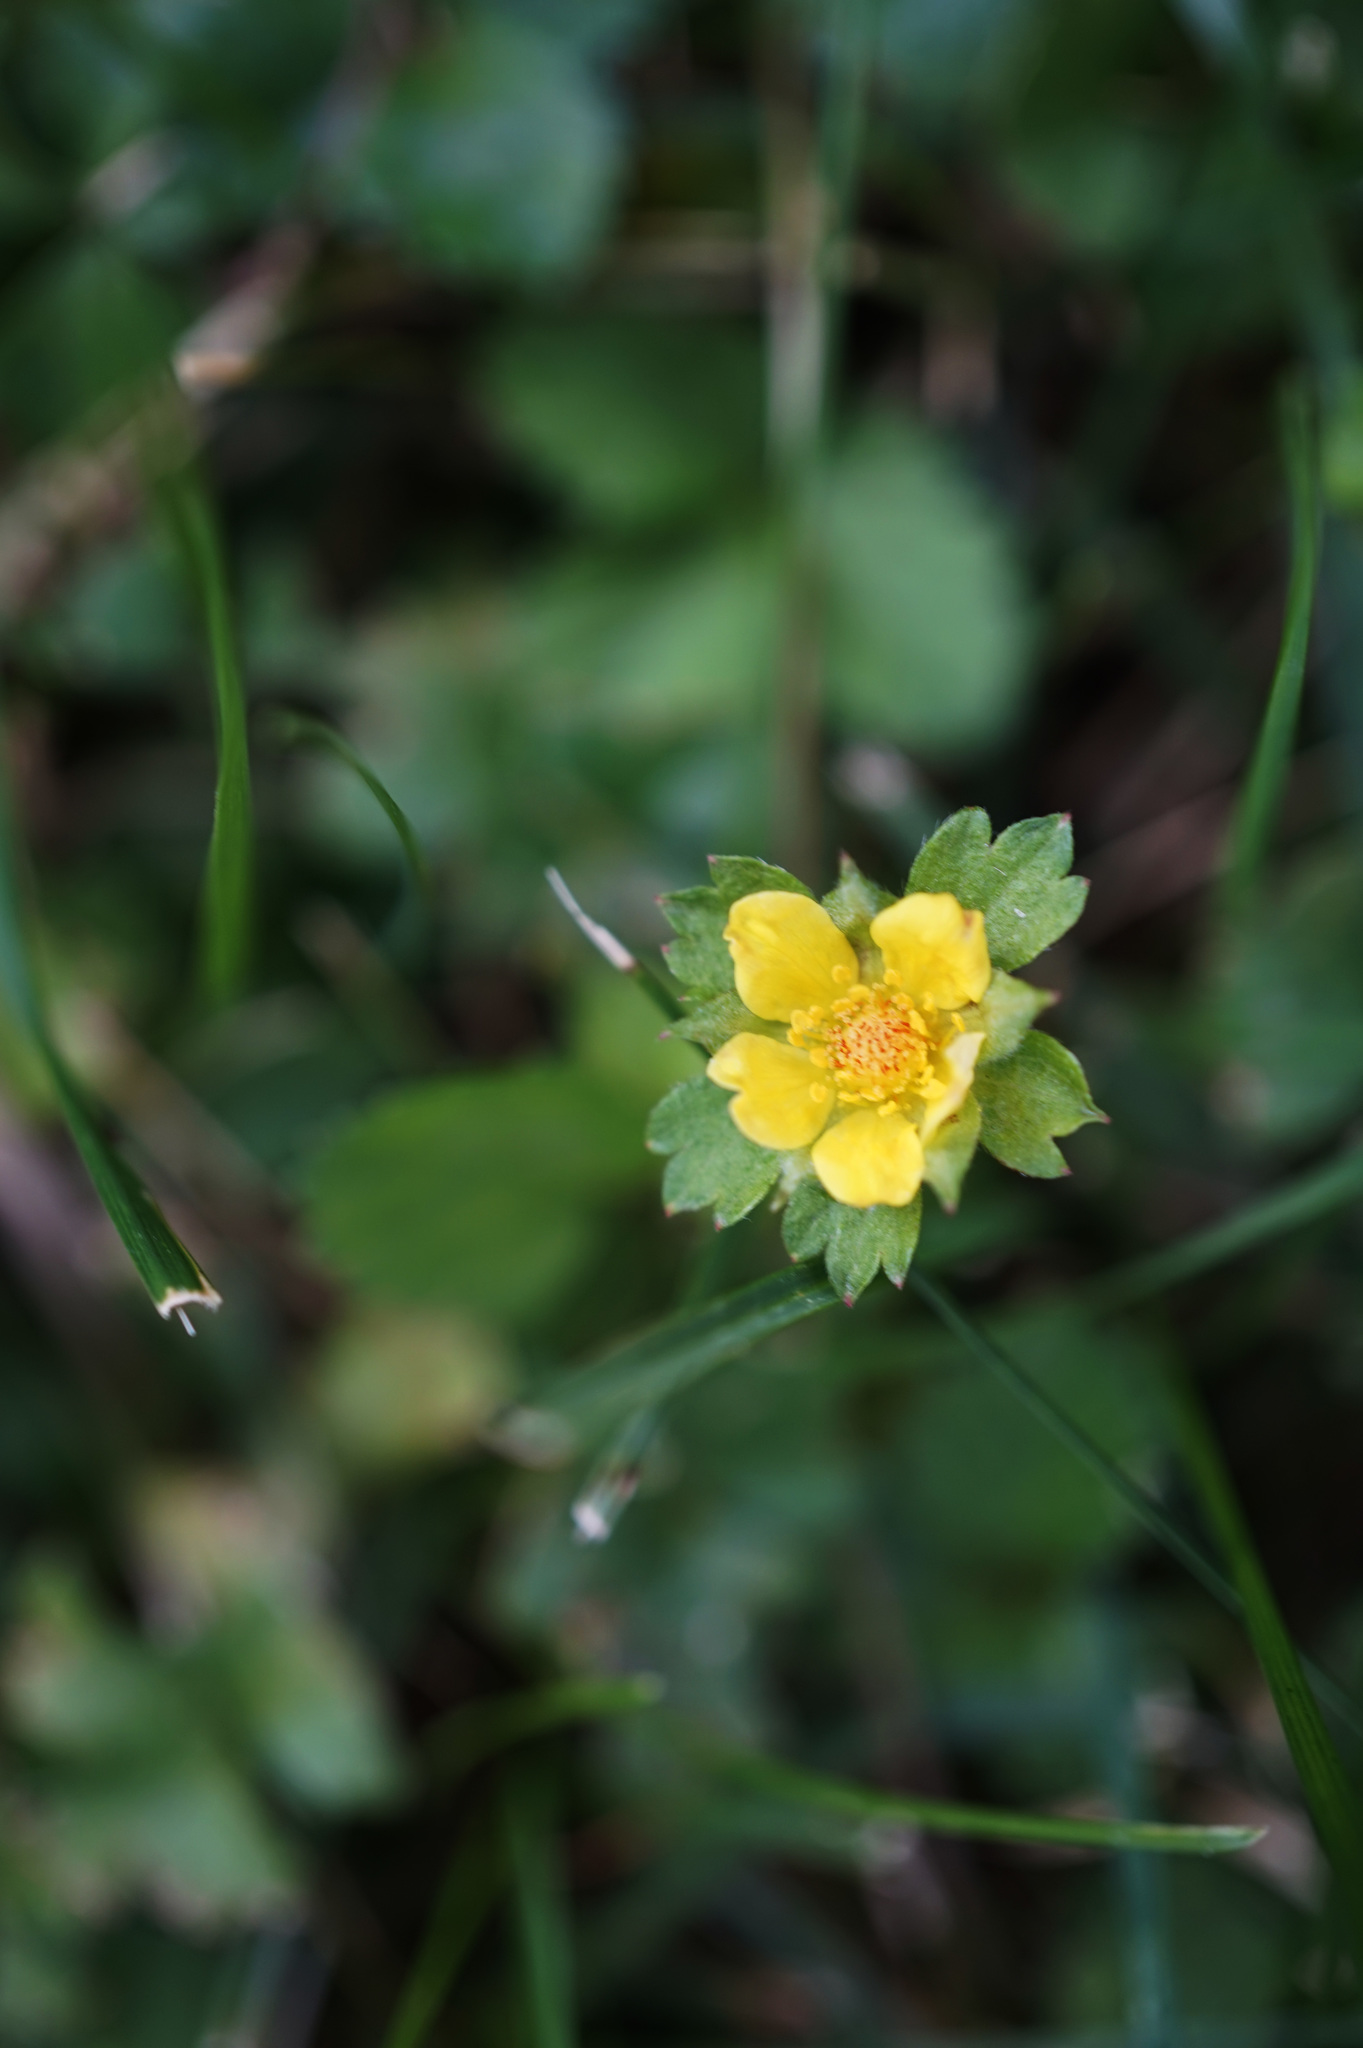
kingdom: Plantae
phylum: Tracheophyta
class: Magnoliopsida
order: Rosales
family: Rosaceae
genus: Potentilla
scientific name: Potentilla indica
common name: Yellow-flowered strawberry
